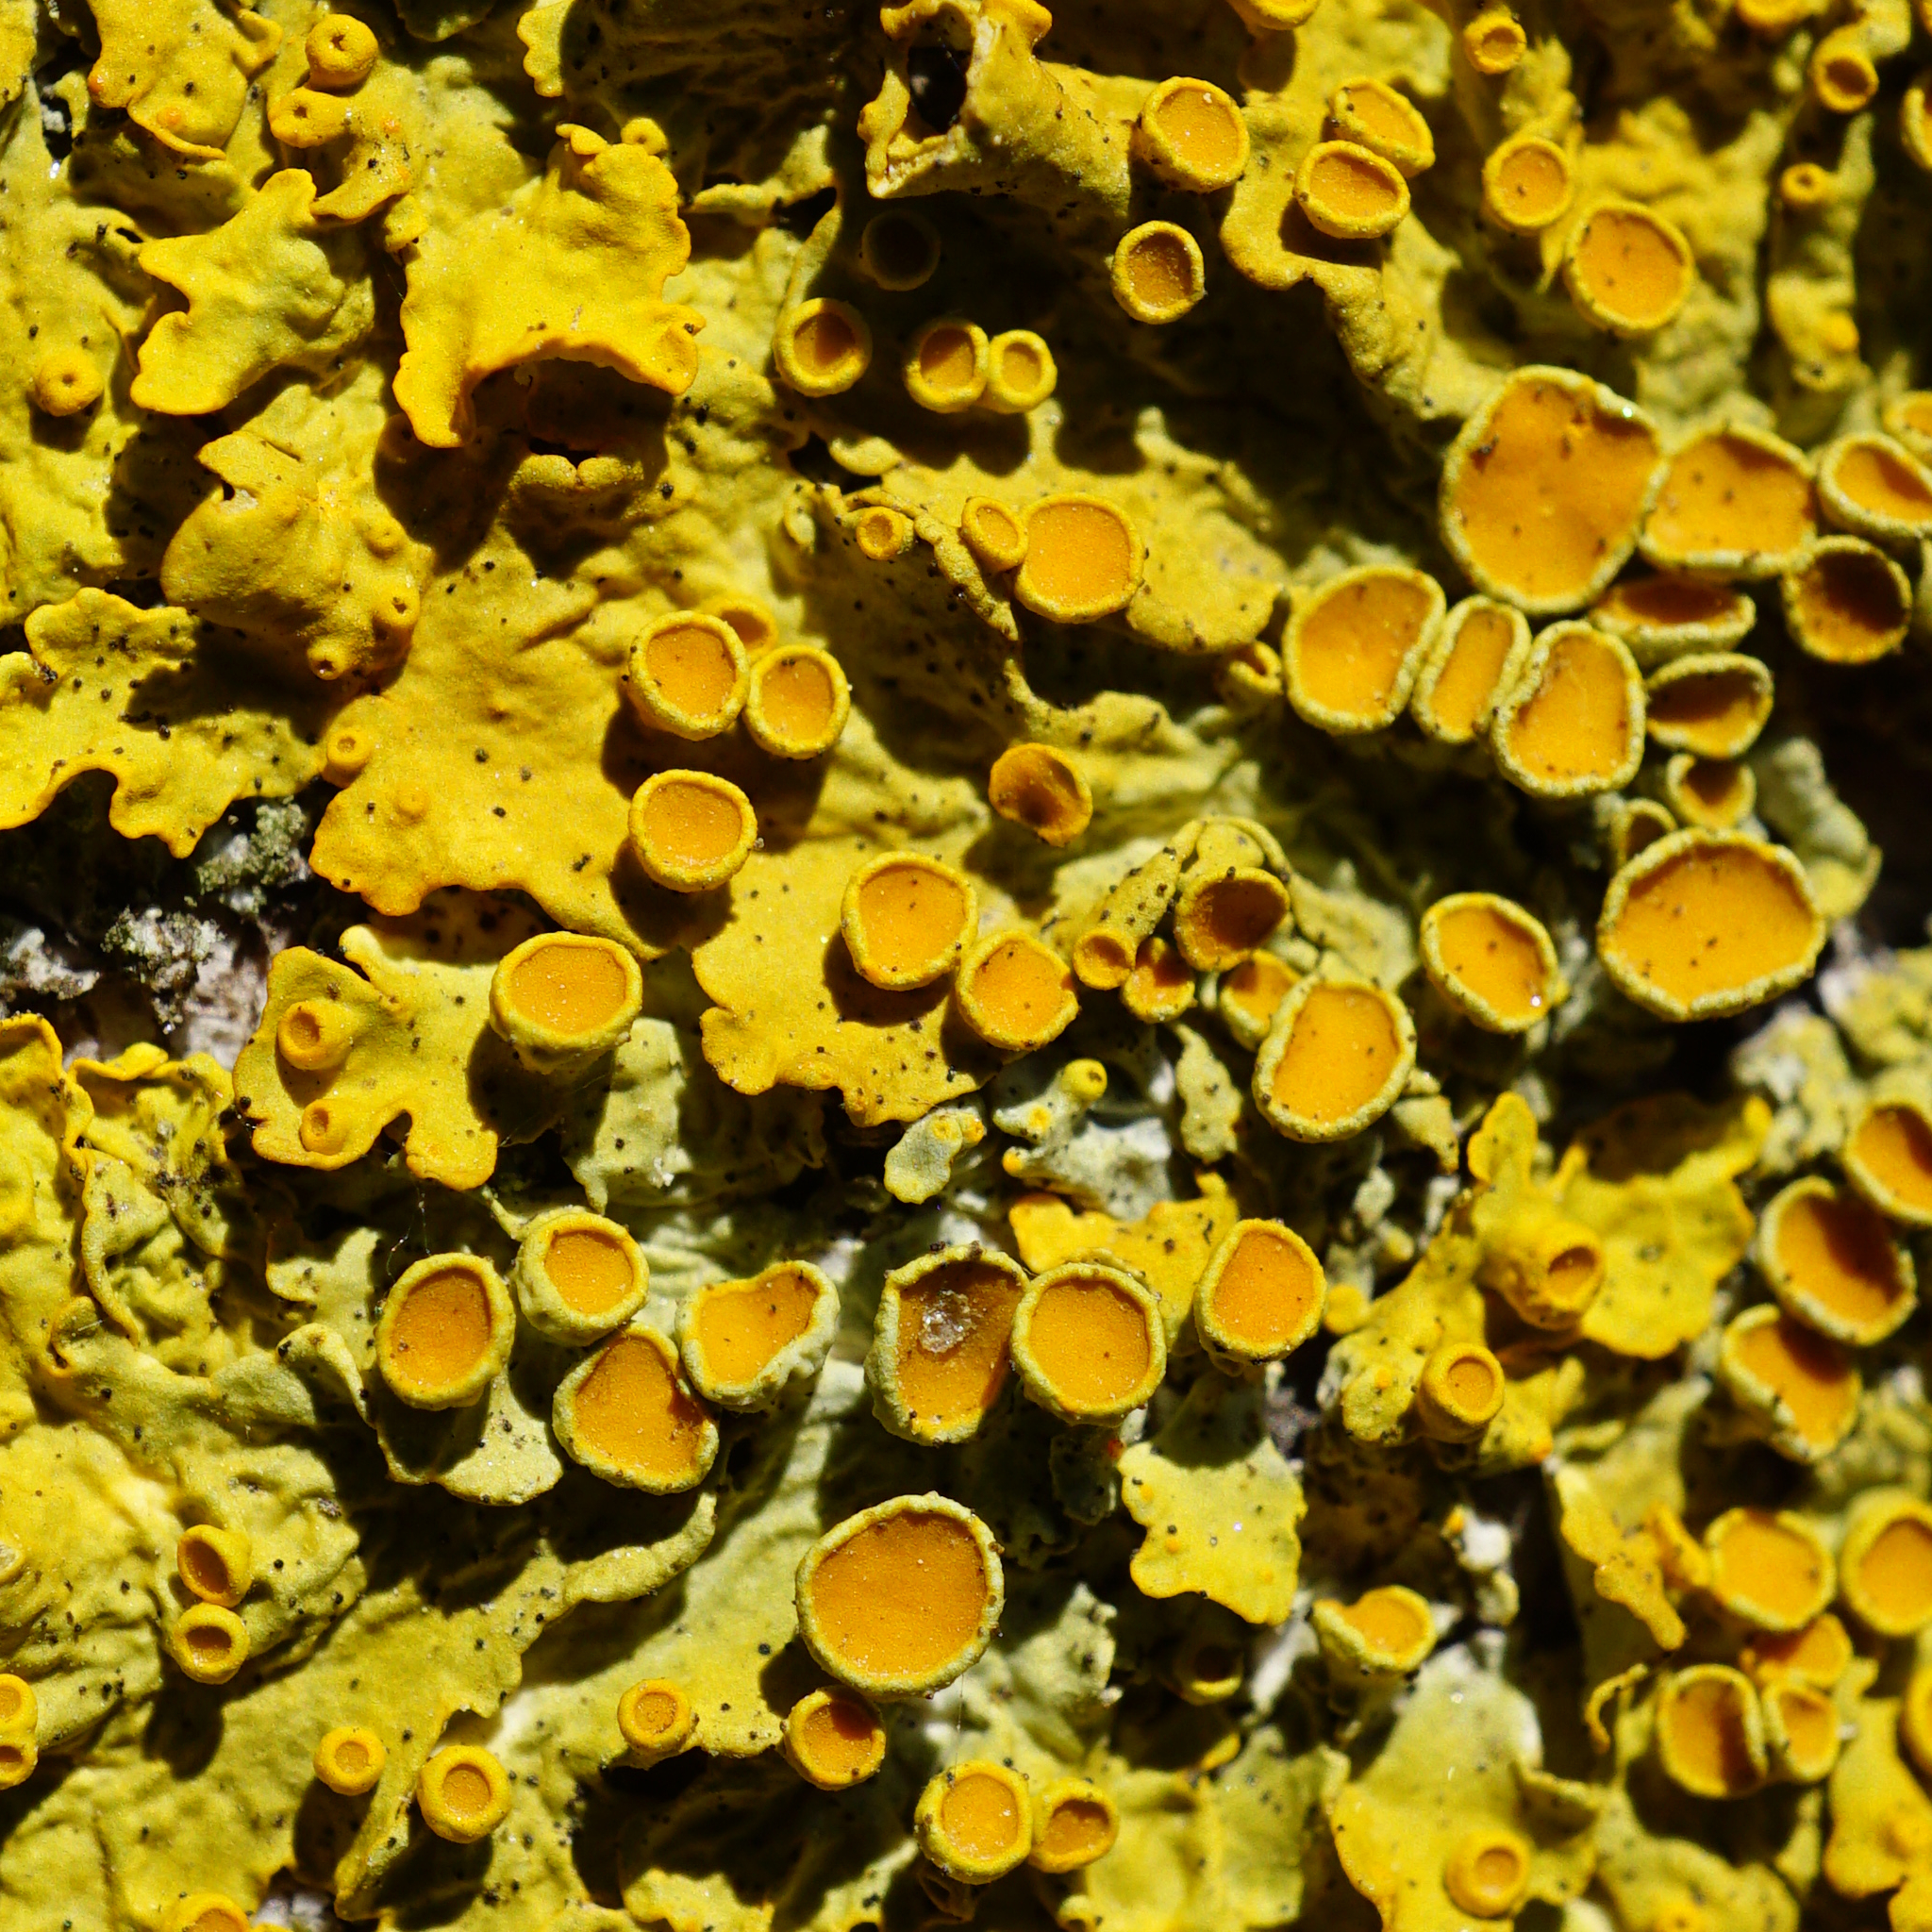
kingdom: Fungi
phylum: Ascomycota
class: Lecanoromycetes
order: Teloschistales
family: Teloschistaceae
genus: Xanthoria
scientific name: Xanthoria parietina
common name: Common orange lichen
